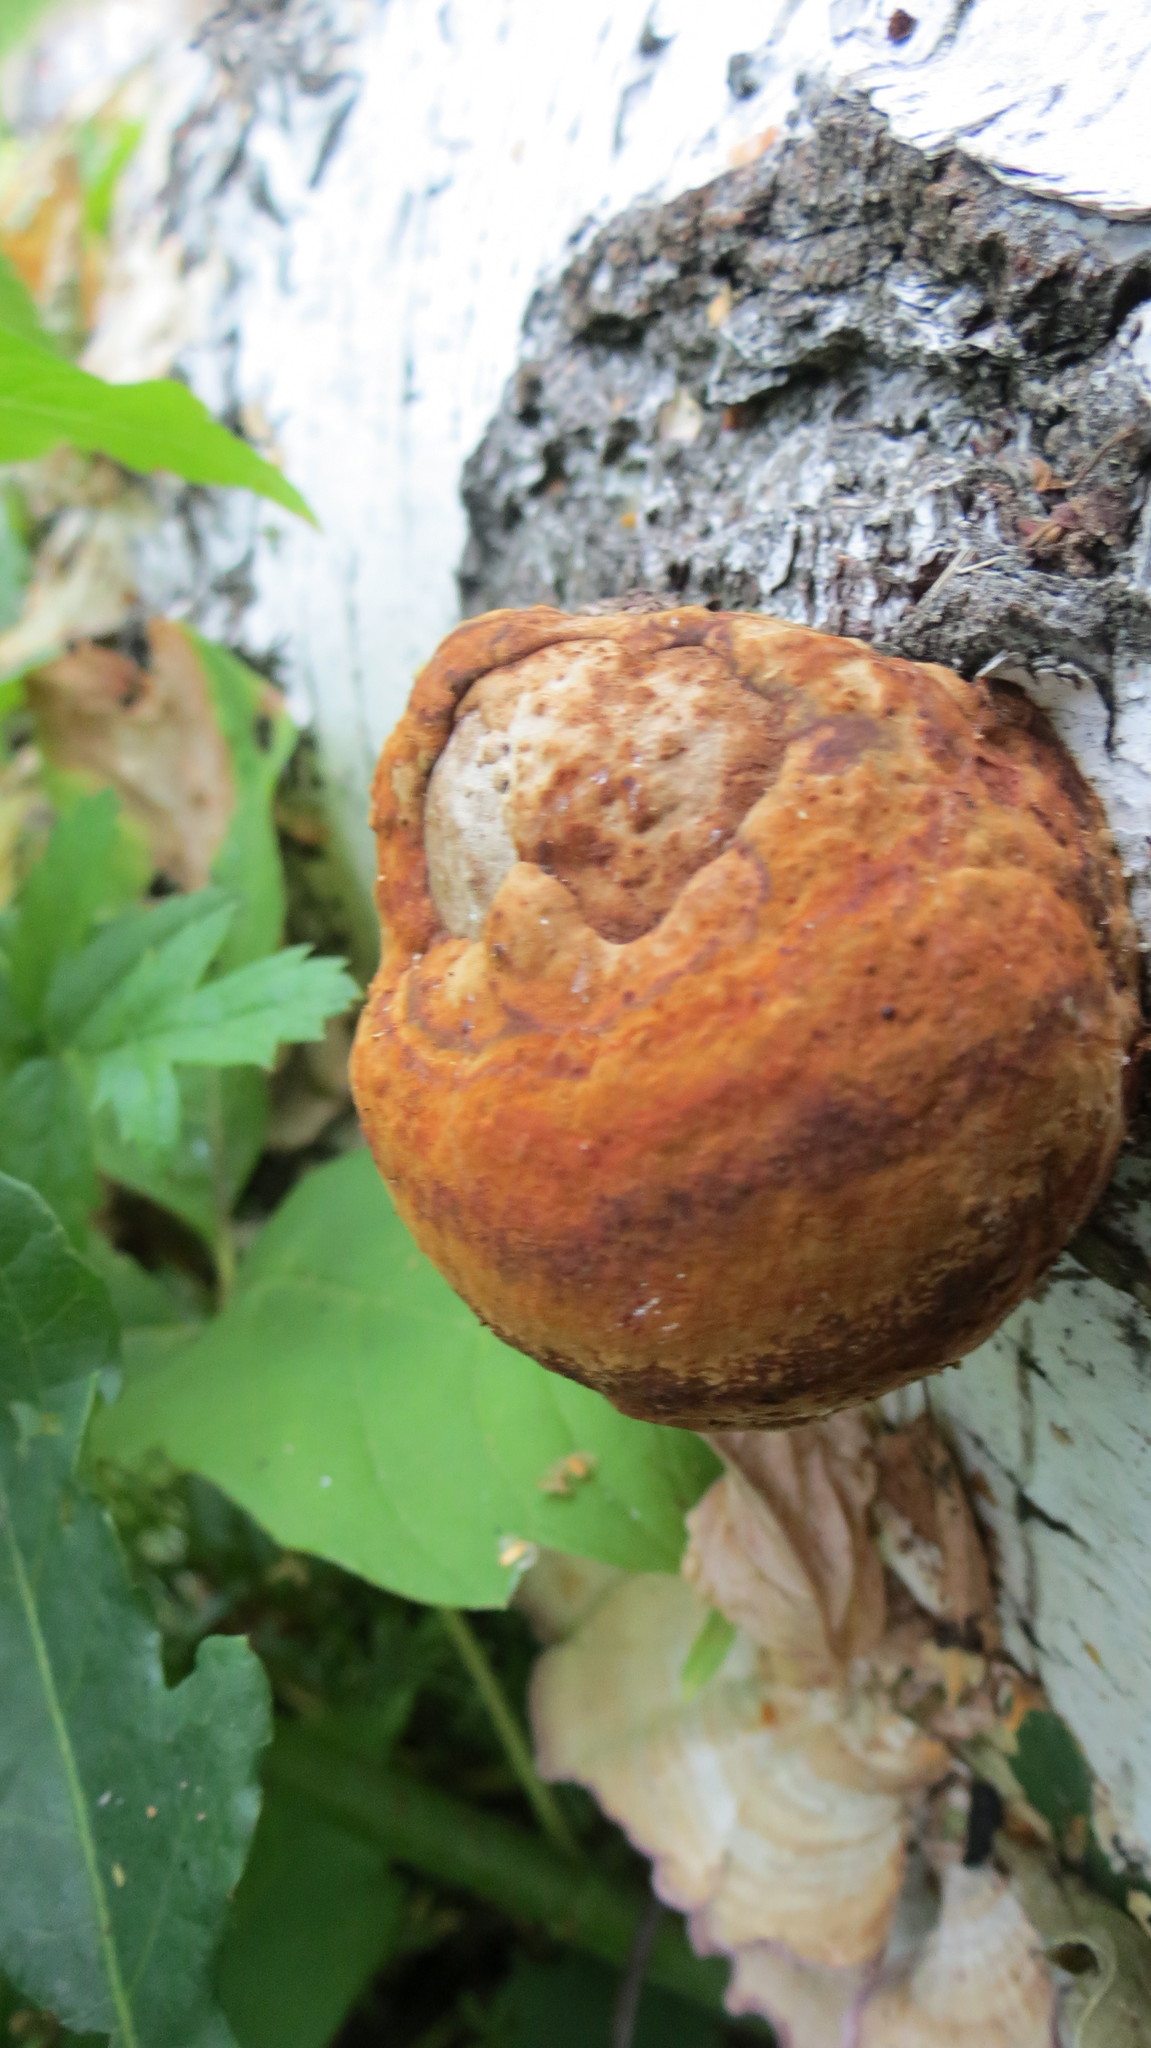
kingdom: Fungi
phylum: Basidiomycota
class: Agaricomycetes
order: Polyporales
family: Polyporaceae
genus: Fomes
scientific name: Fomes fomentarius
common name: Hoof fungus
